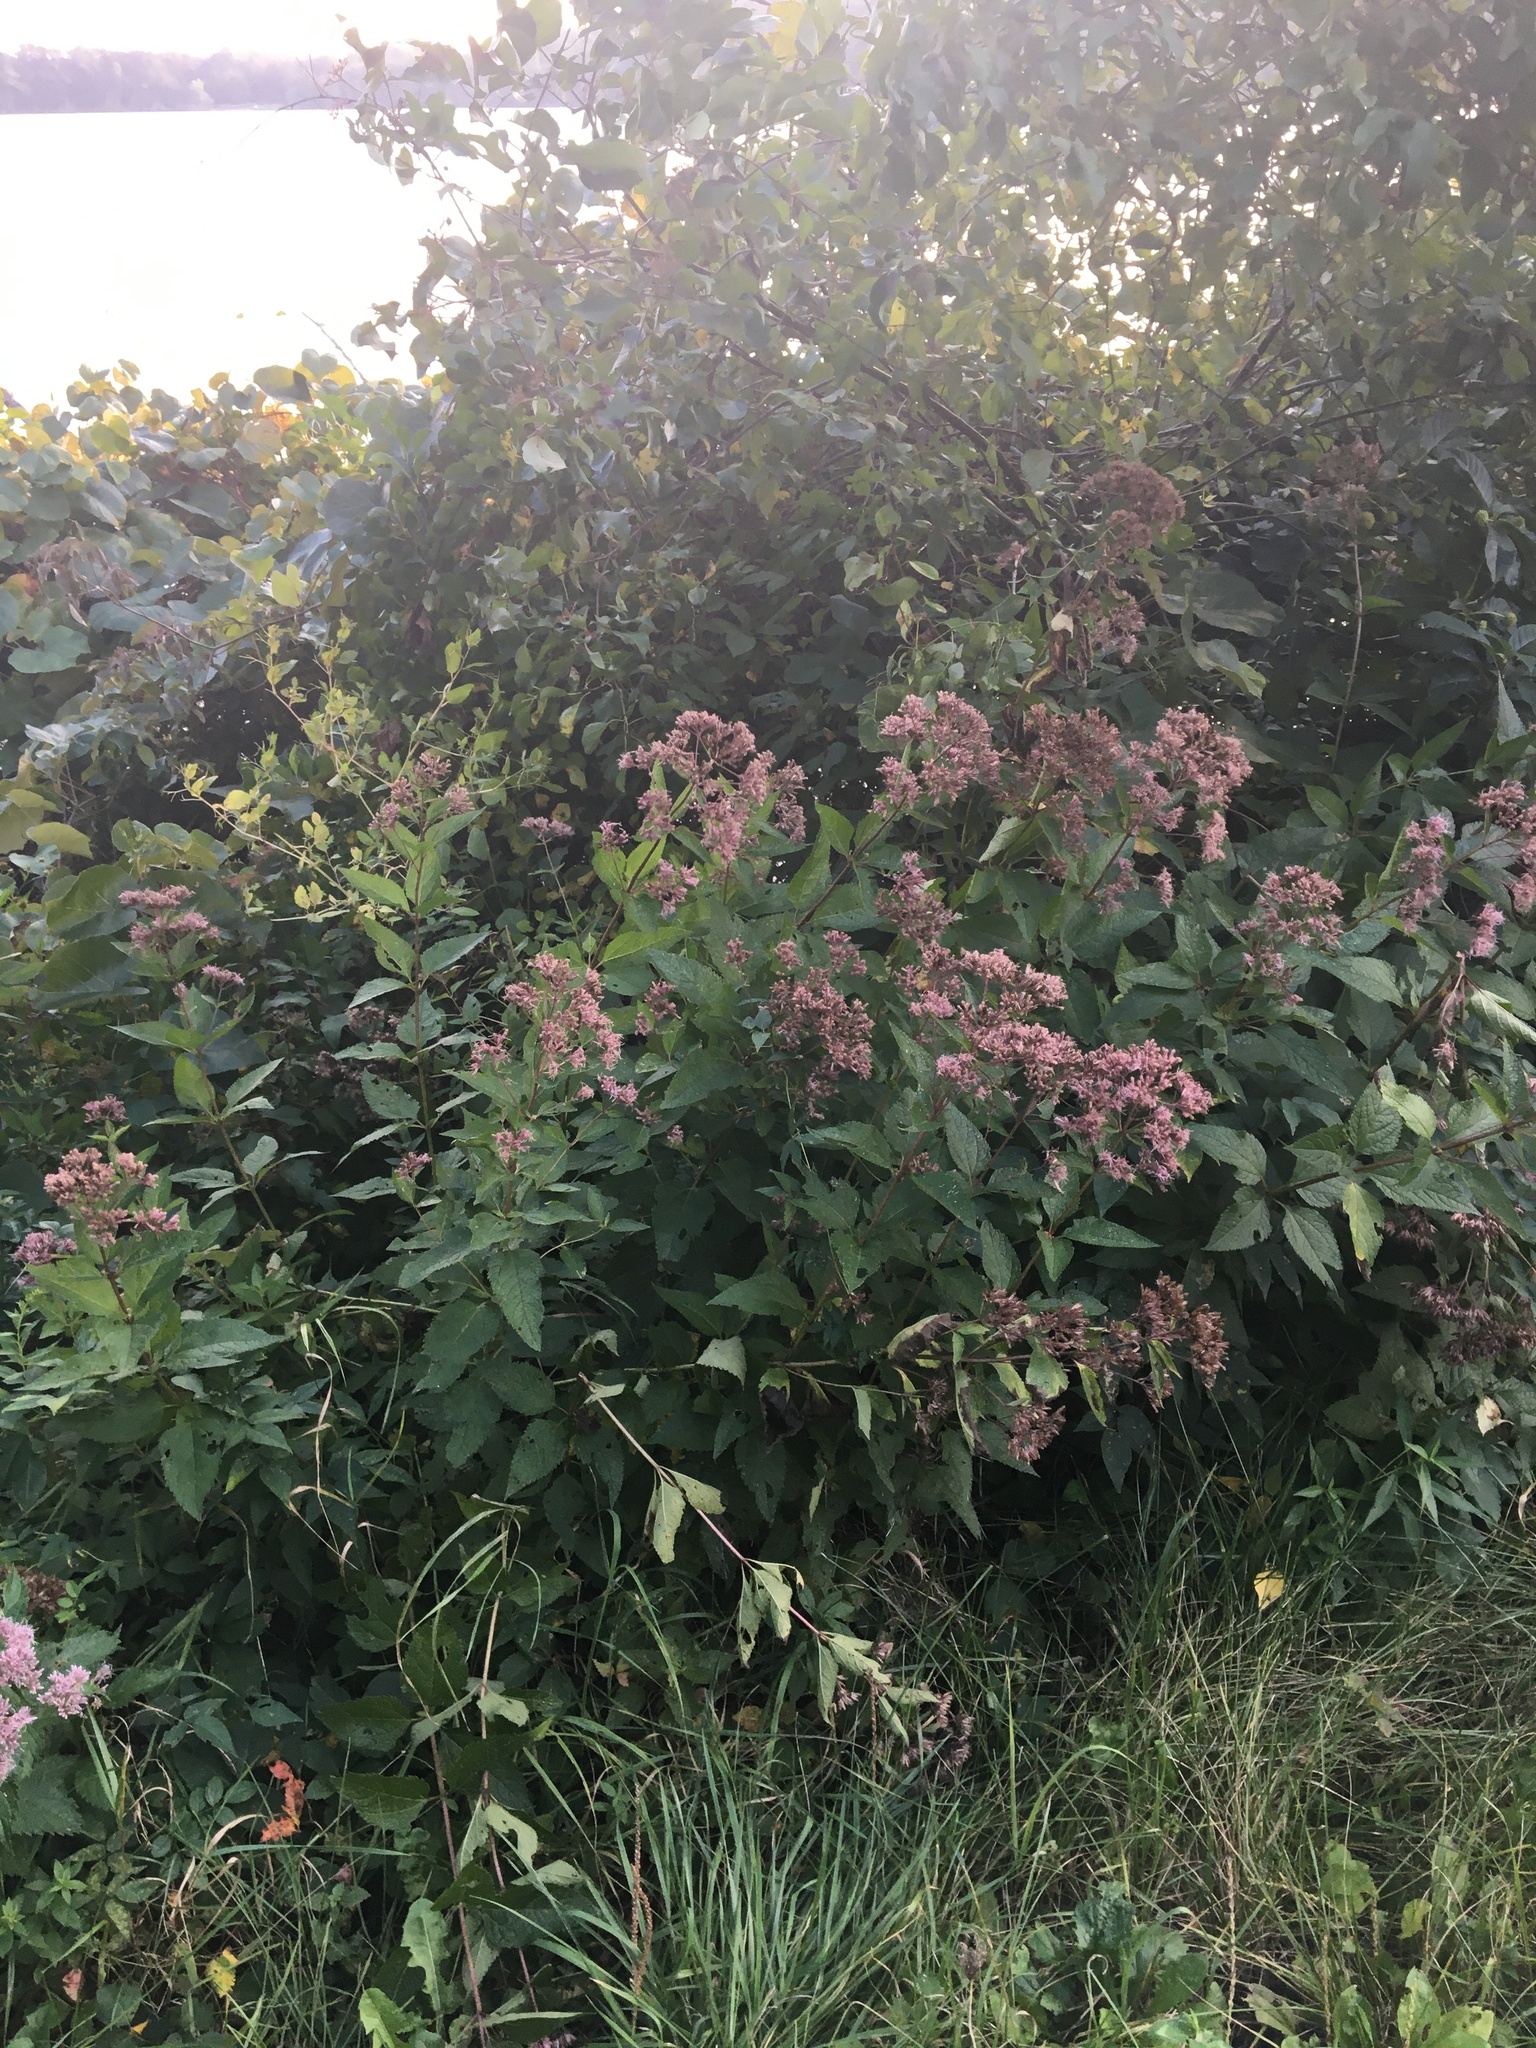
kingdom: Plantae
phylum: Tracheophyta
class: Magnoliopsida
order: Asterales
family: Asteraceae
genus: Eutrochium
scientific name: Eutrochium dubium
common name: Coastal plain joe pye weed
